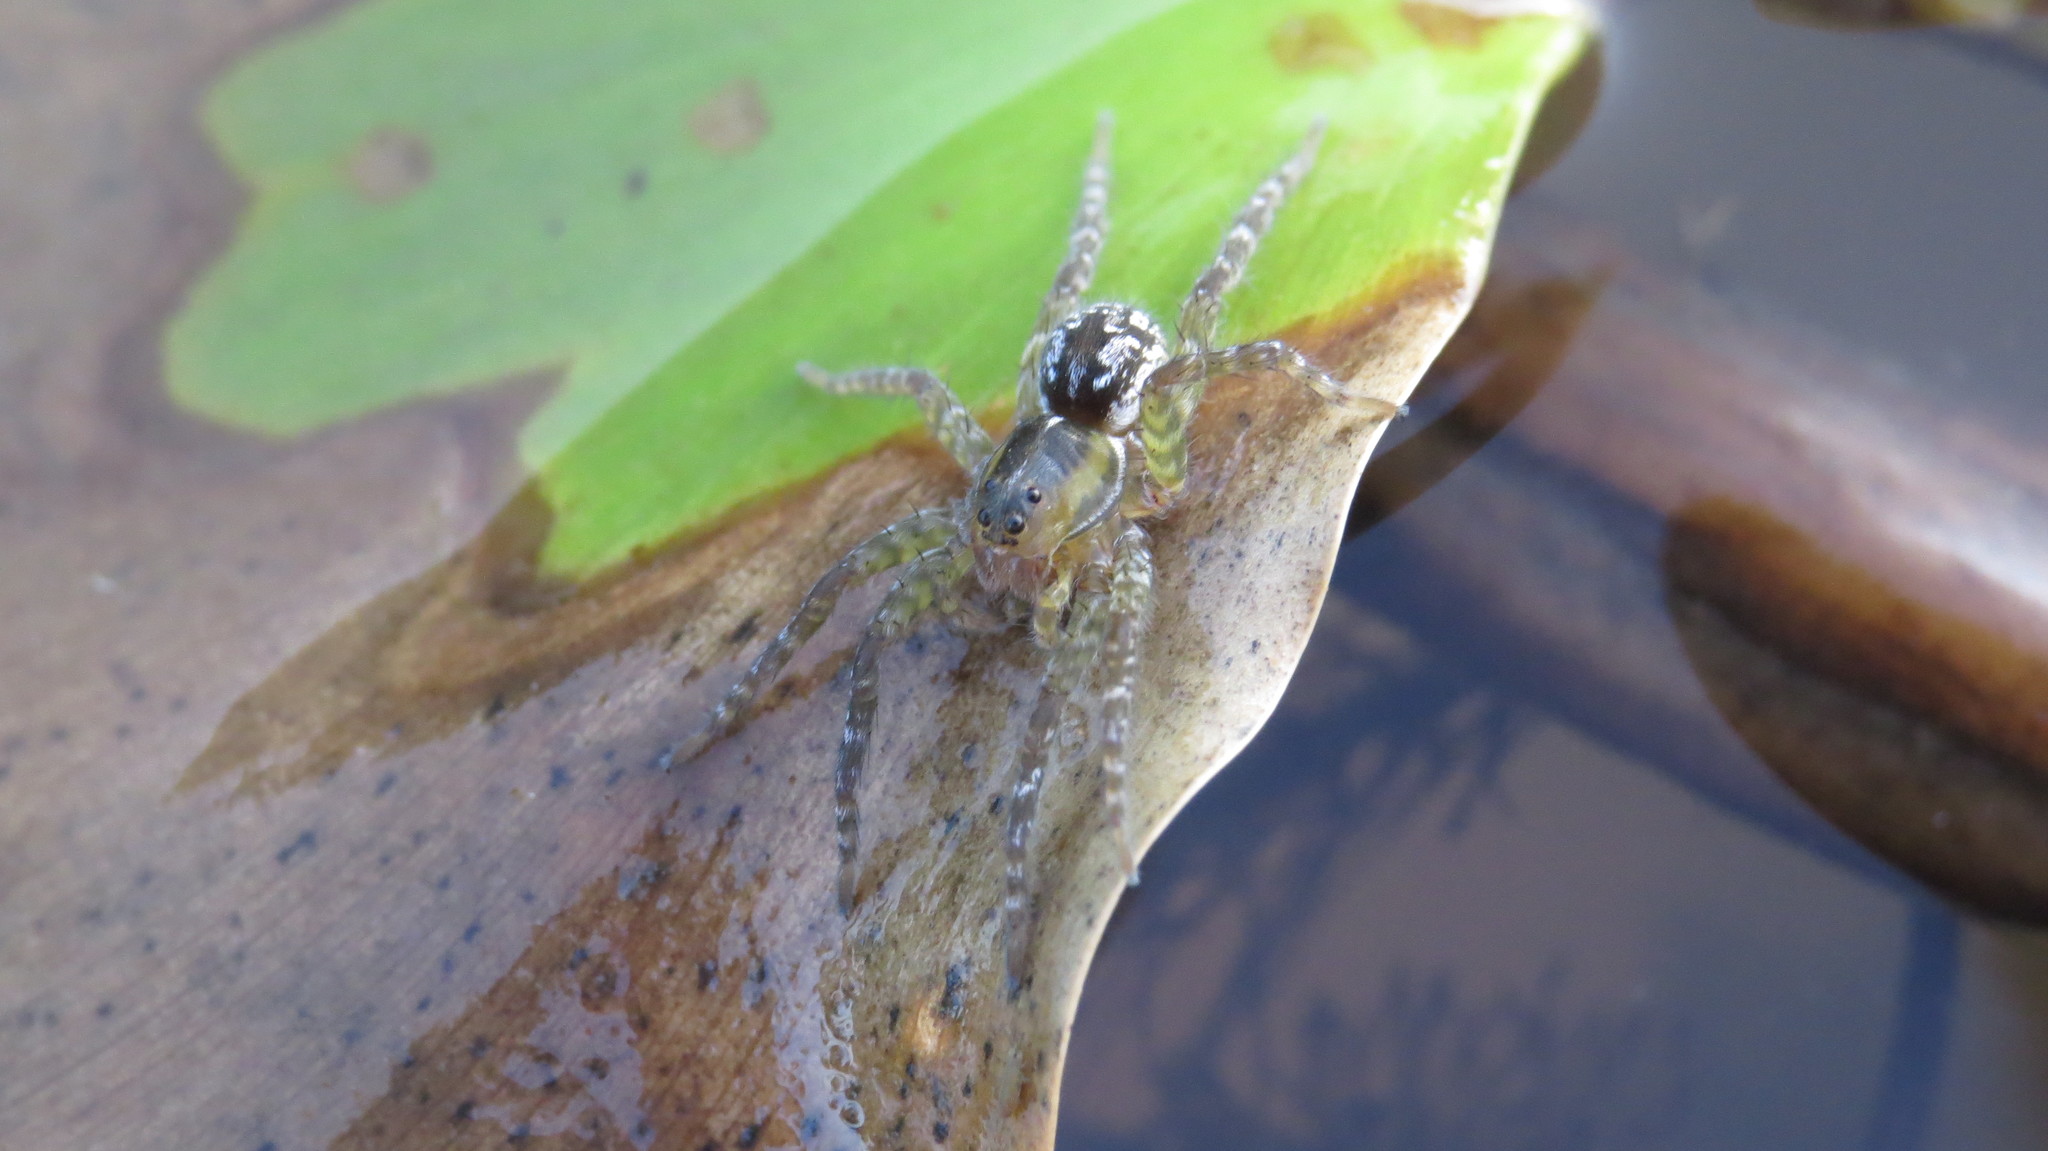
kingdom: Animalia
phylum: Arthropoda
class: Arachnida
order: Araneae
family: Lycosidae
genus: Allocosa
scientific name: Allocosa paraguayensis
